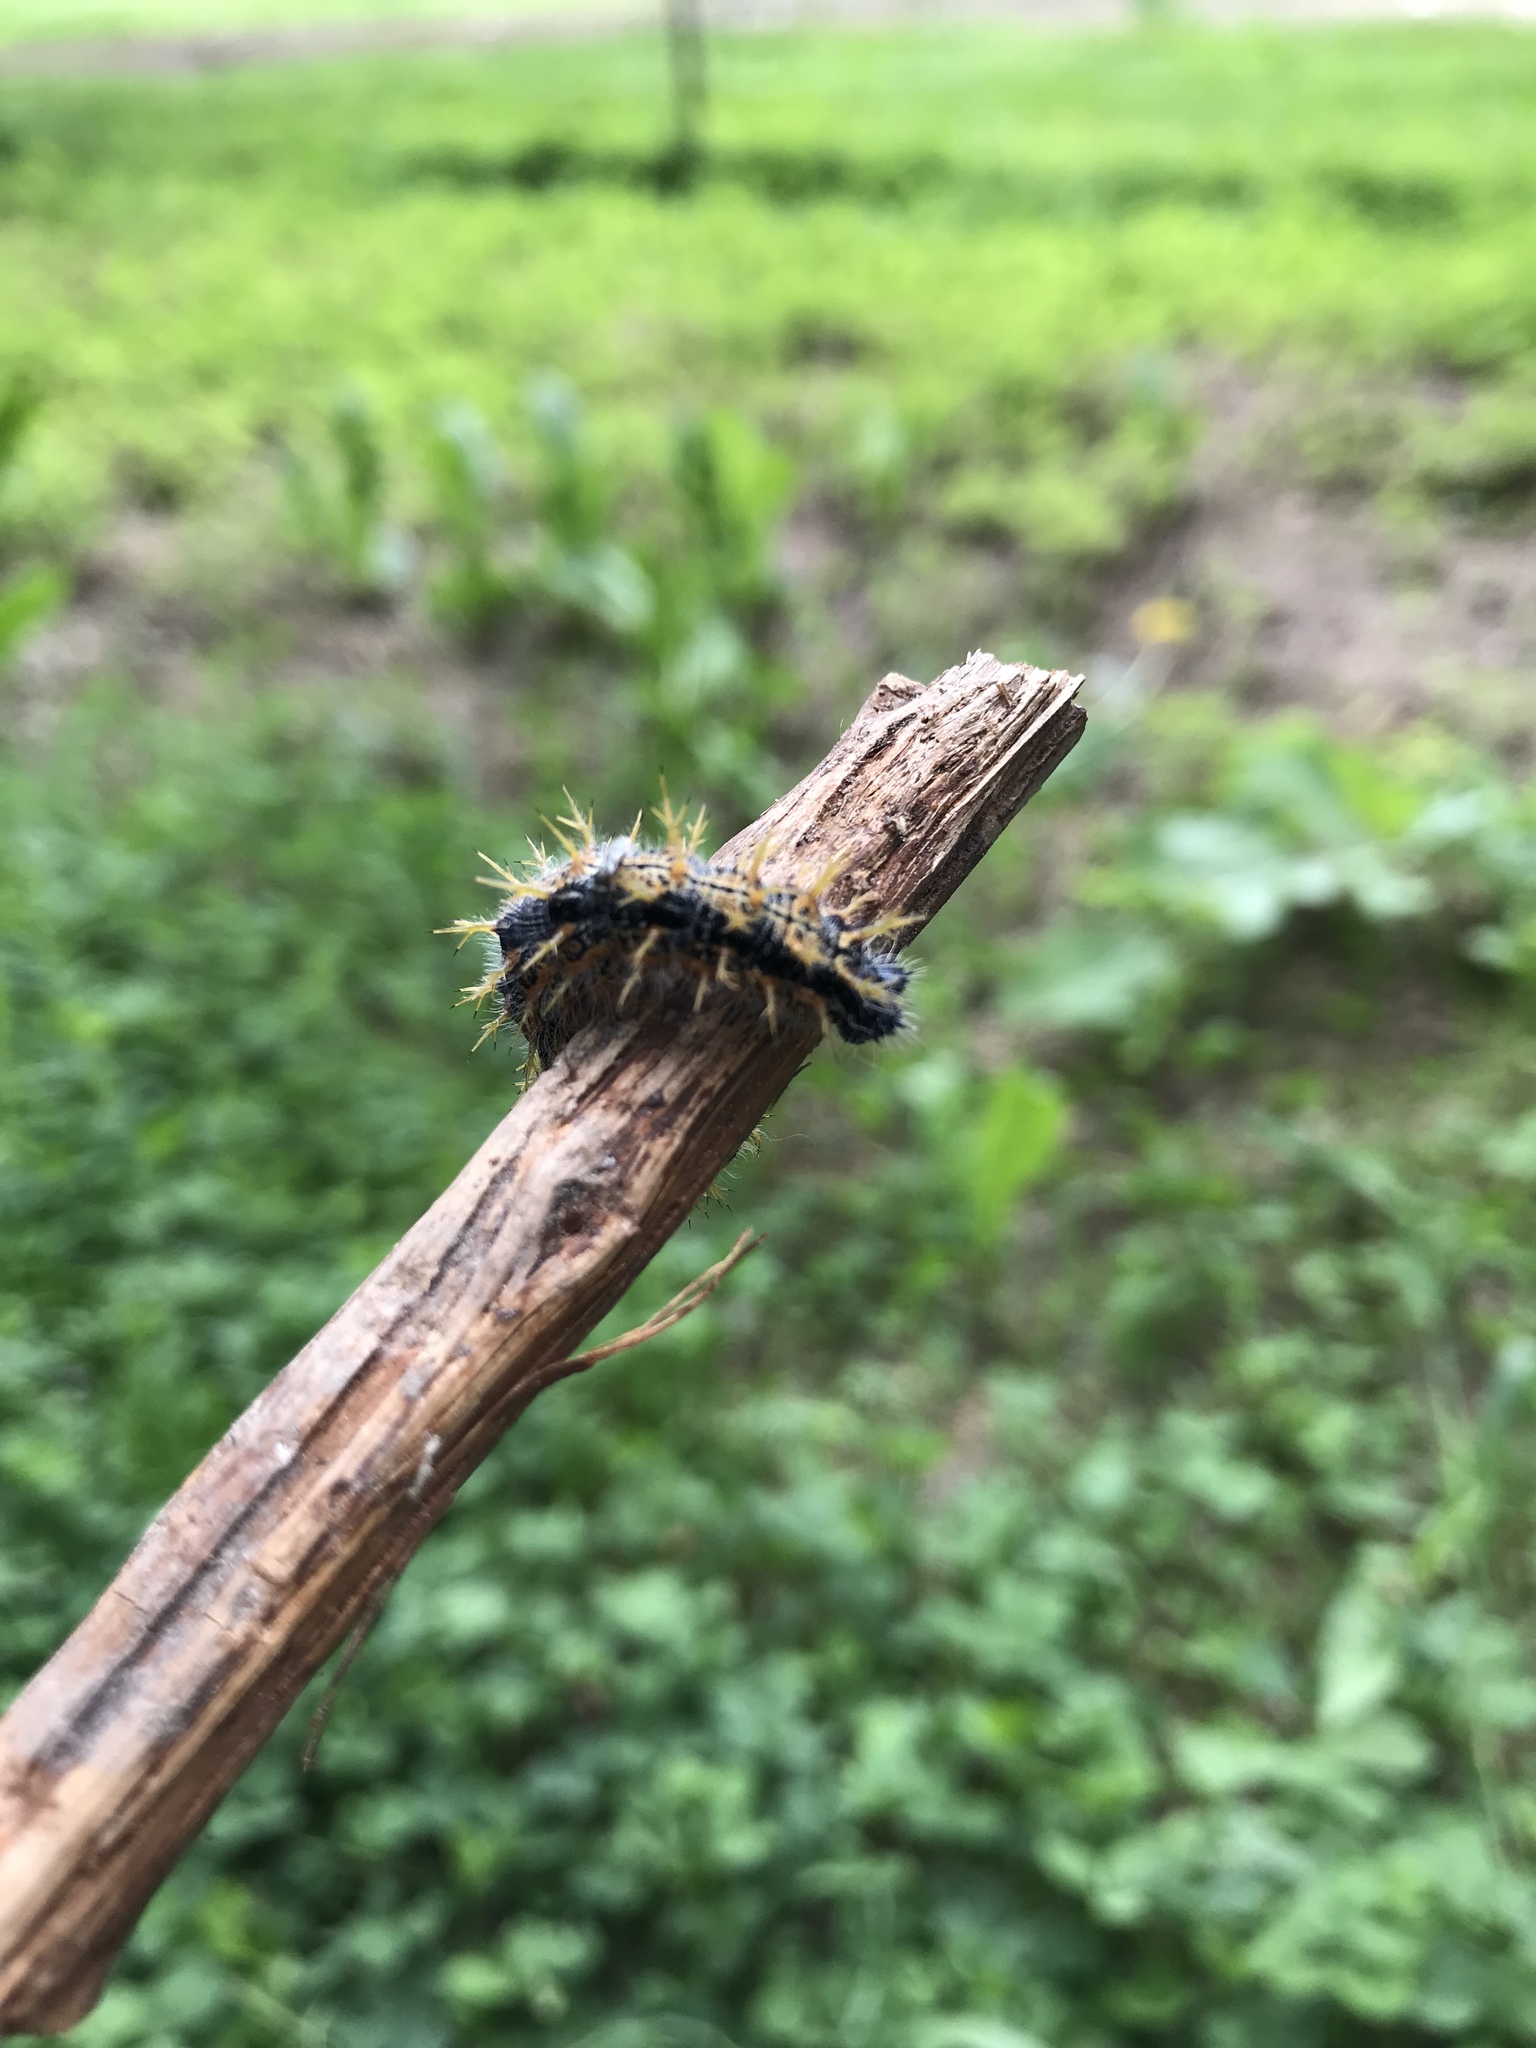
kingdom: Animalia
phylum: Arthropoda
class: Insecta
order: Lepidoptera
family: Nymphalidae
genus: Nymphalis
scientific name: Nymphalis polychloros
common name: Large tortoiseshell
